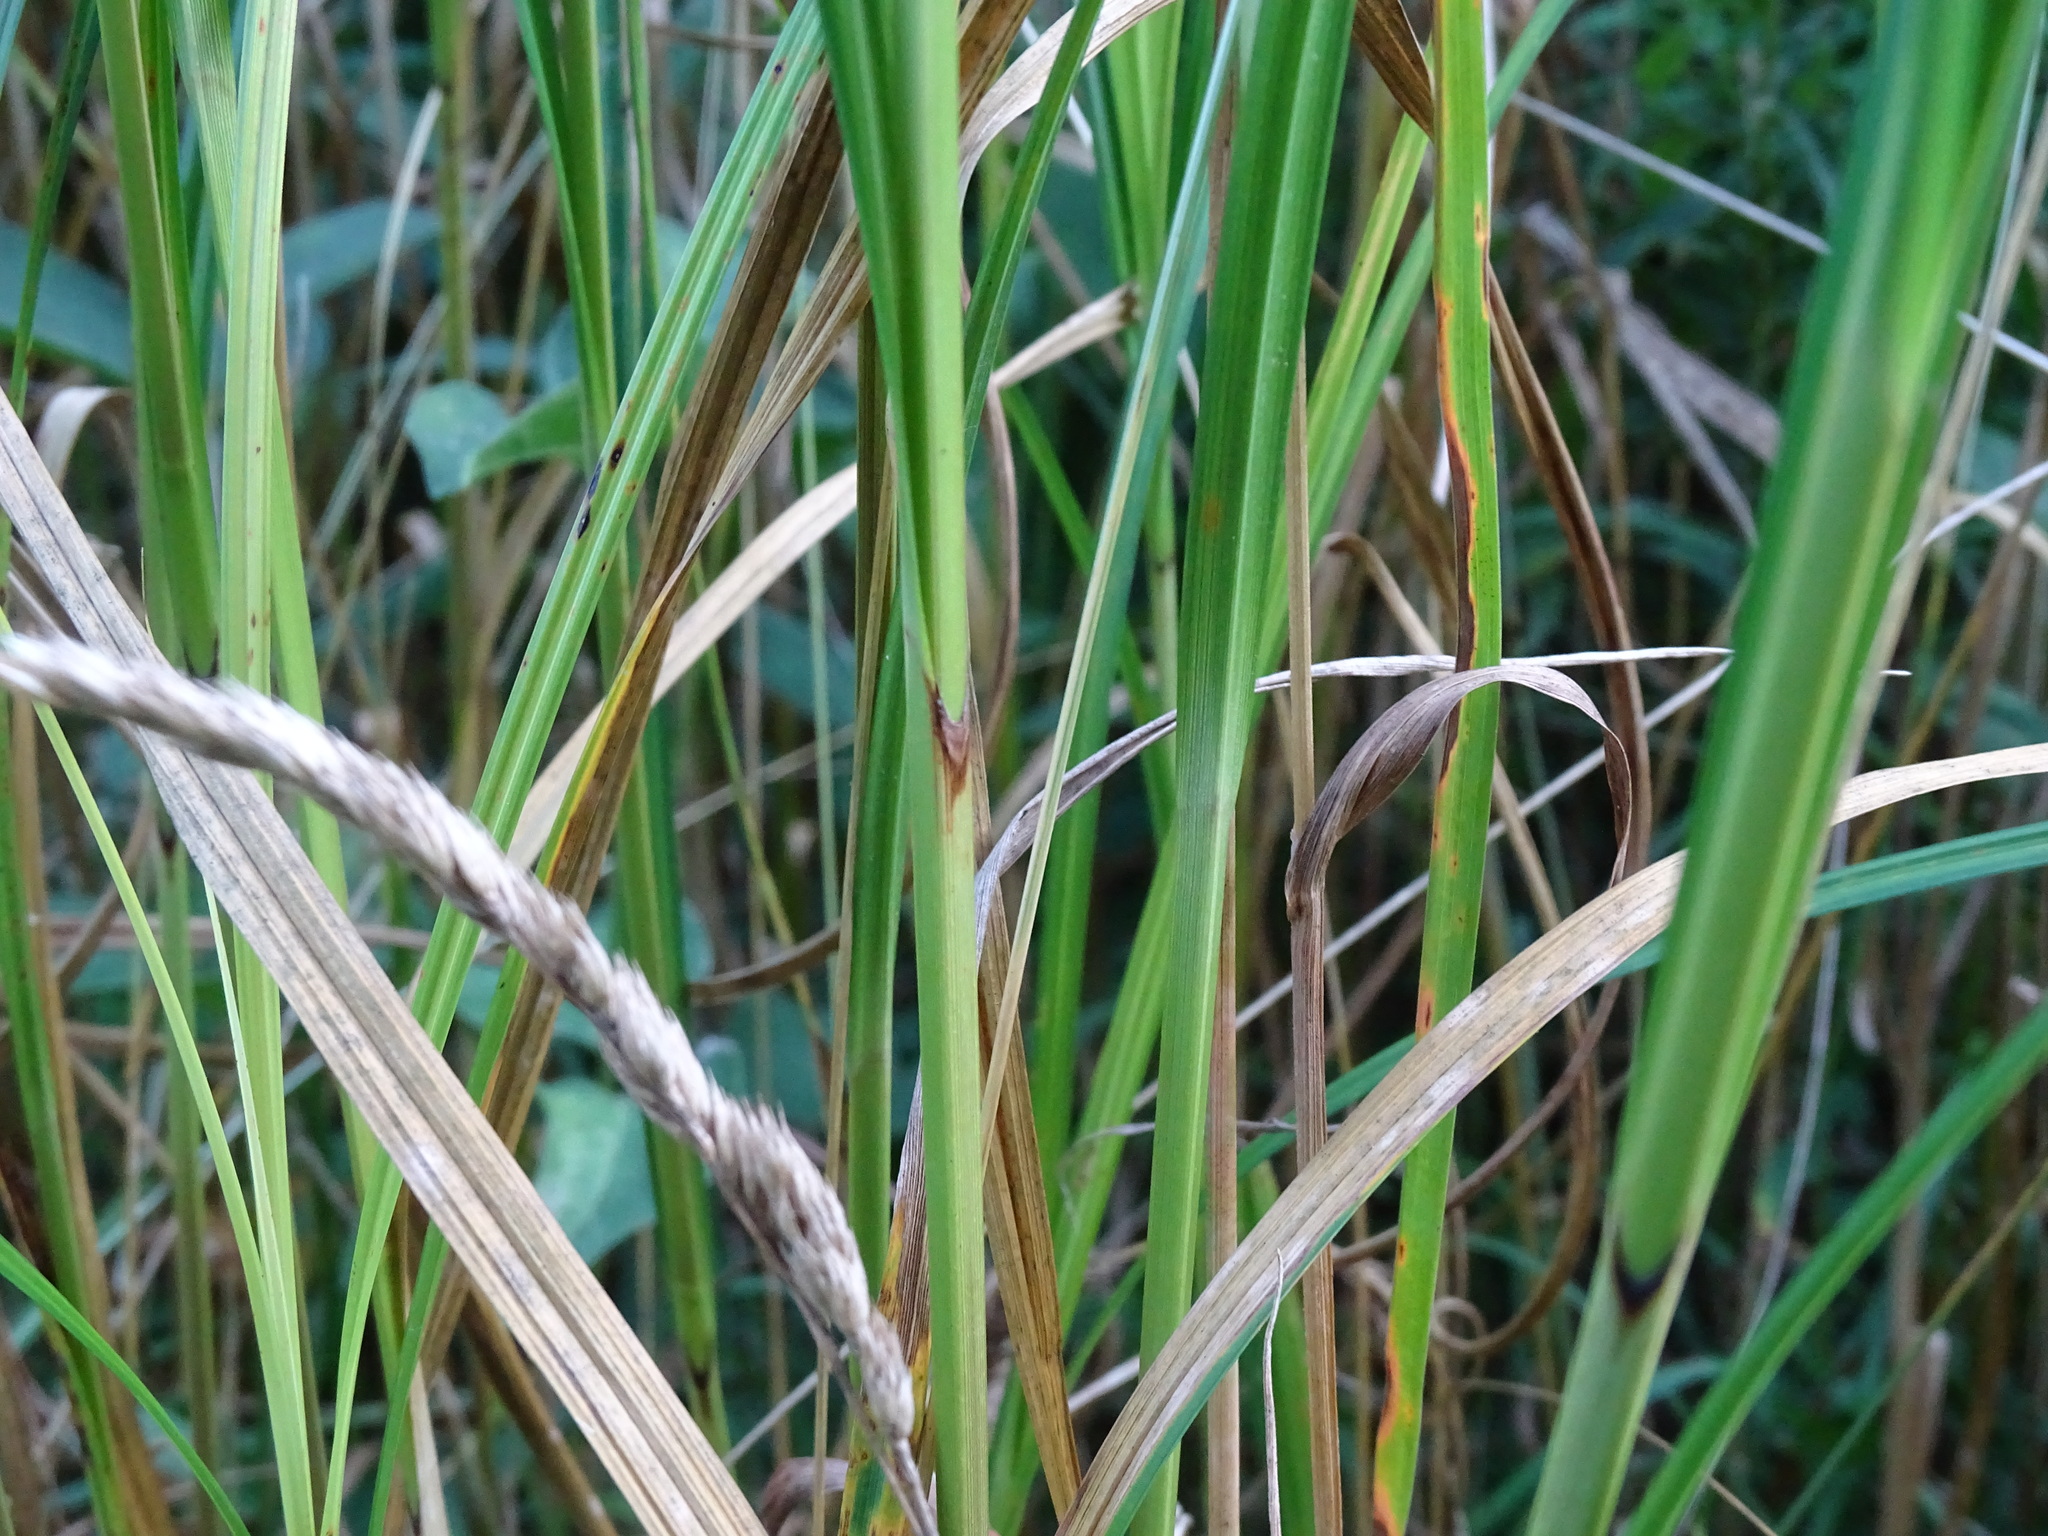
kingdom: Plantae
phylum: Tracheophyta
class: Liliopsida
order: Poales
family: Cyperaceae
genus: Carex
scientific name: Carex trichocarpa
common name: Hairy-fruited lake sedge
